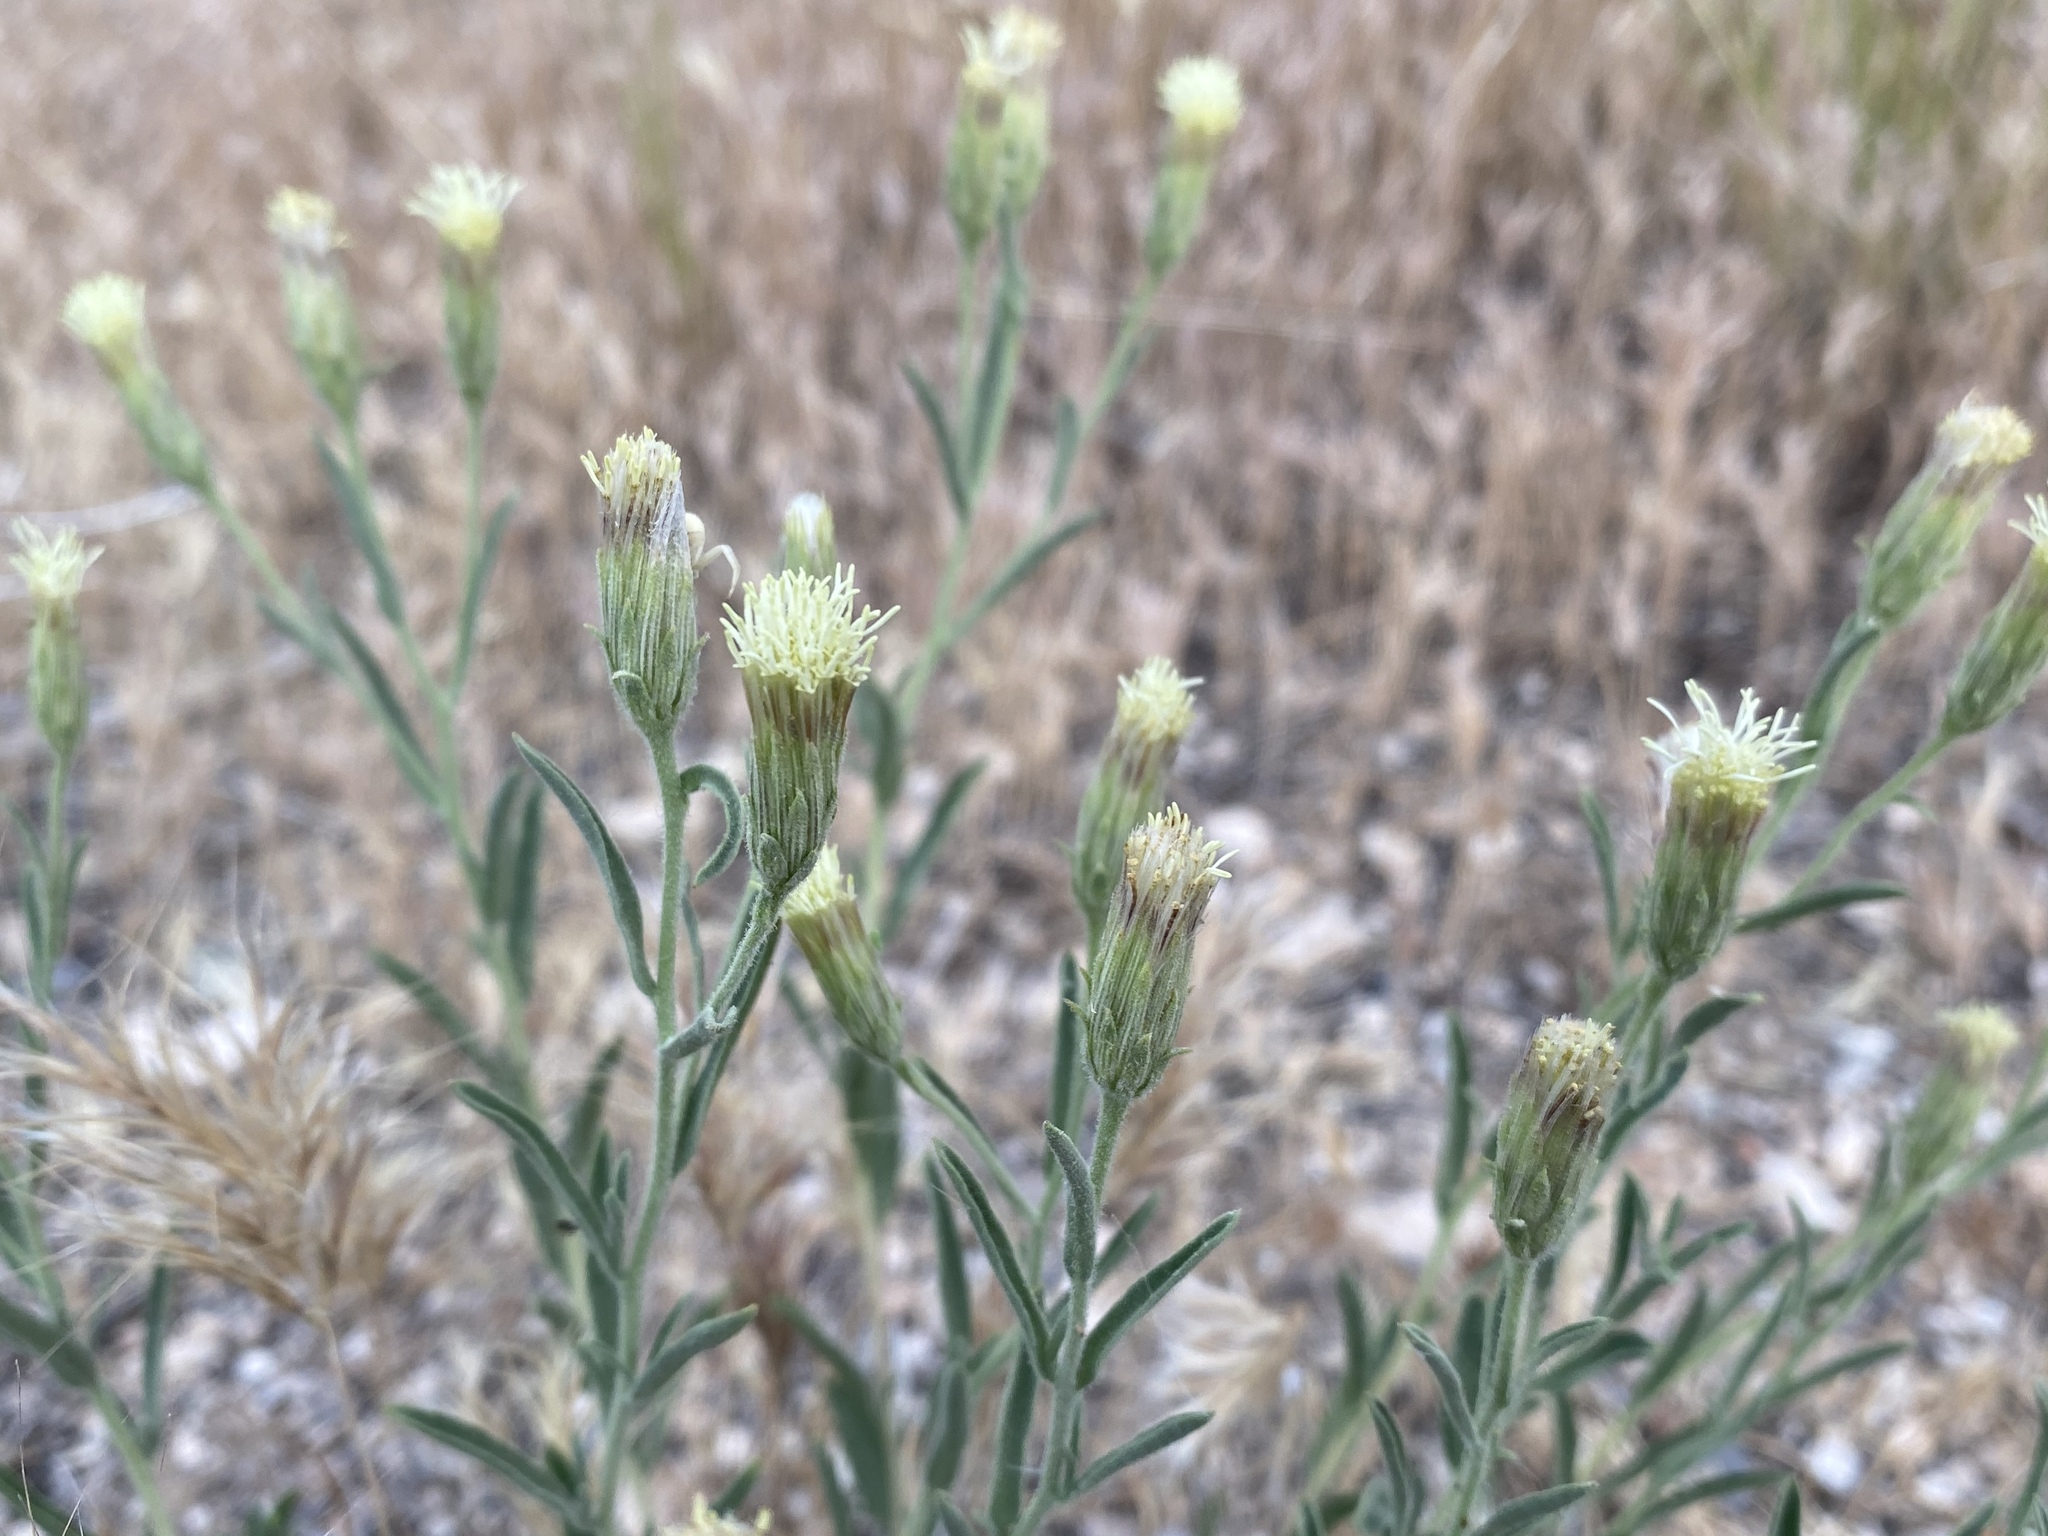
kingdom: Plantae
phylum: Tracheophyta
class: Magnoliopsida
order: Asterales
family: Asteraceae
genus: Brickellia
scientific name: Brickellia oblongifolia
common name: Mojave brickellbush
